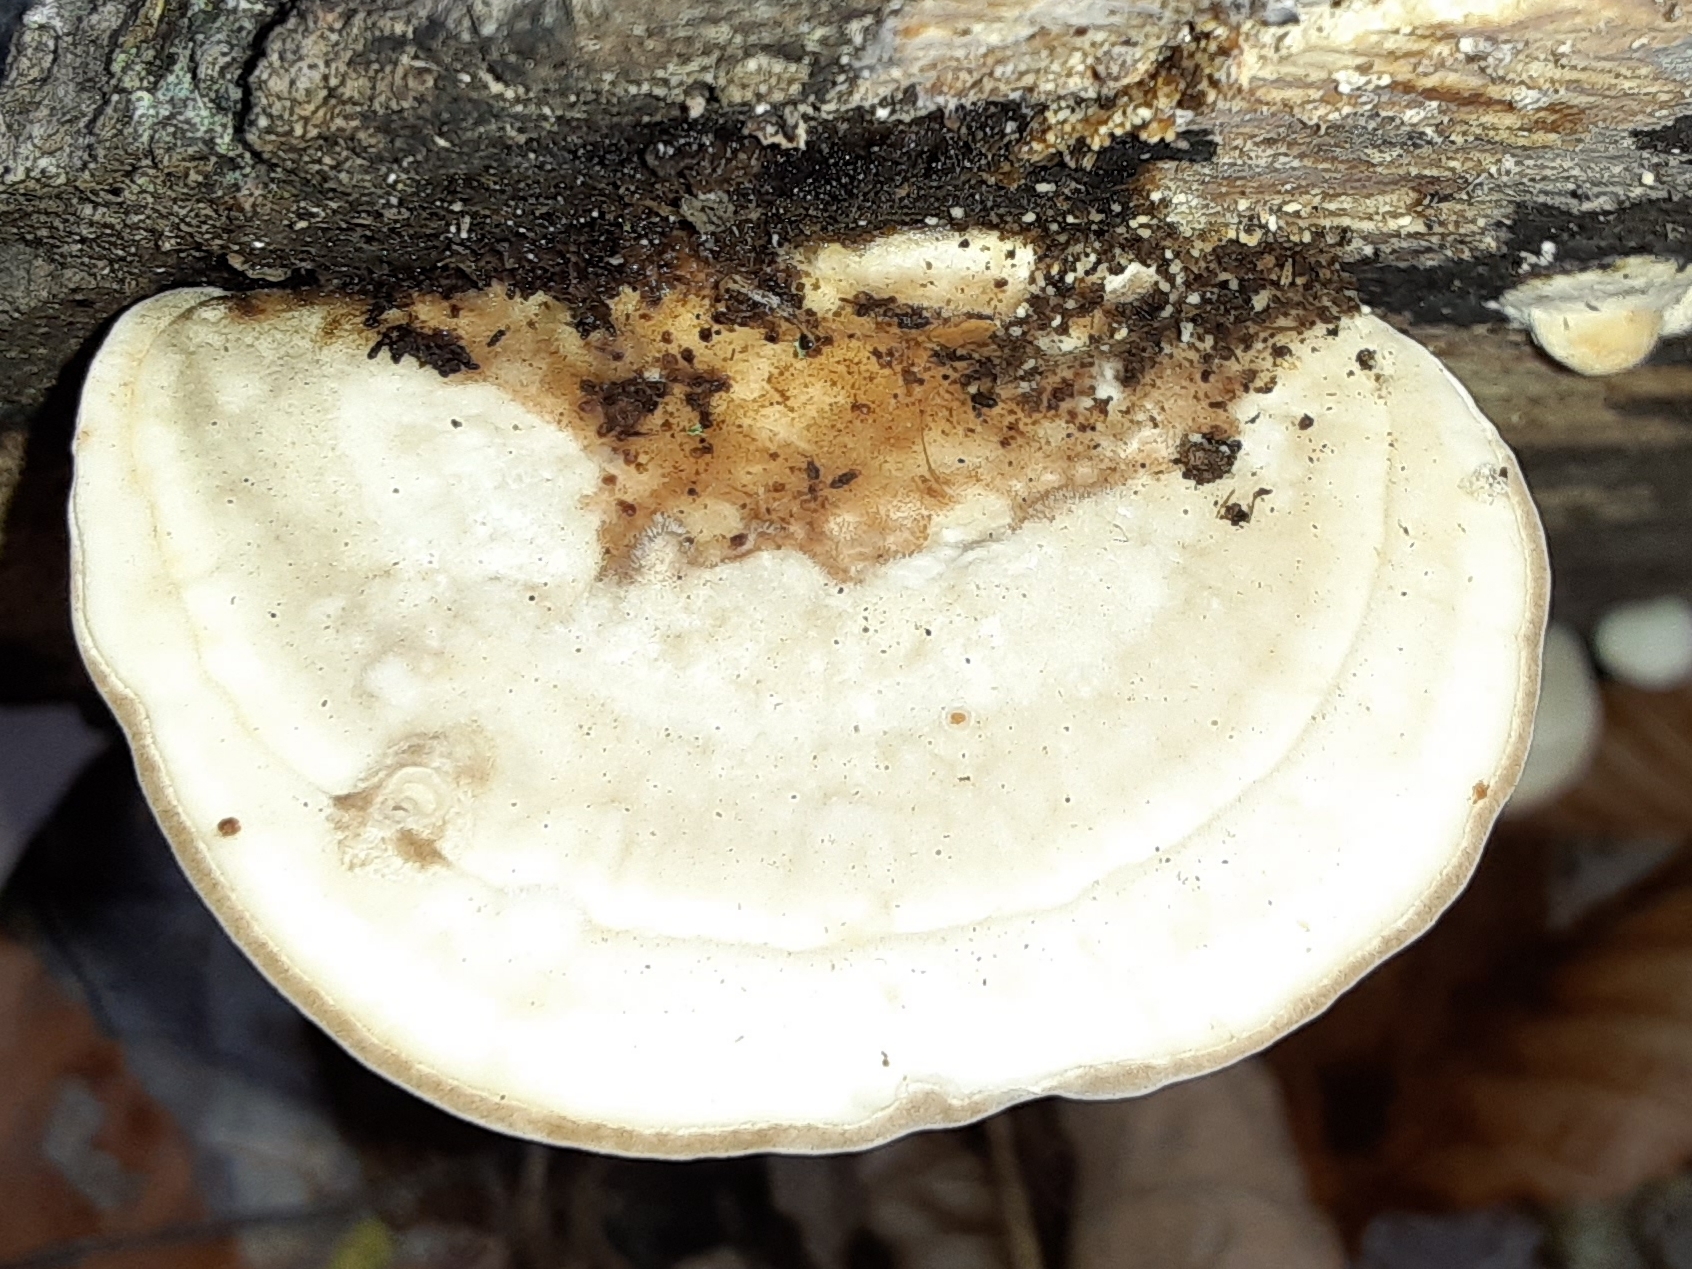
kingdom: Fungi
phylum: Basidiomycota
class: Agaricomycetes
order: Polyporales
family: Polyporaceae
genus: Trametes
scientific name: Trametes gibbosa
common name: Lumpy bracket
